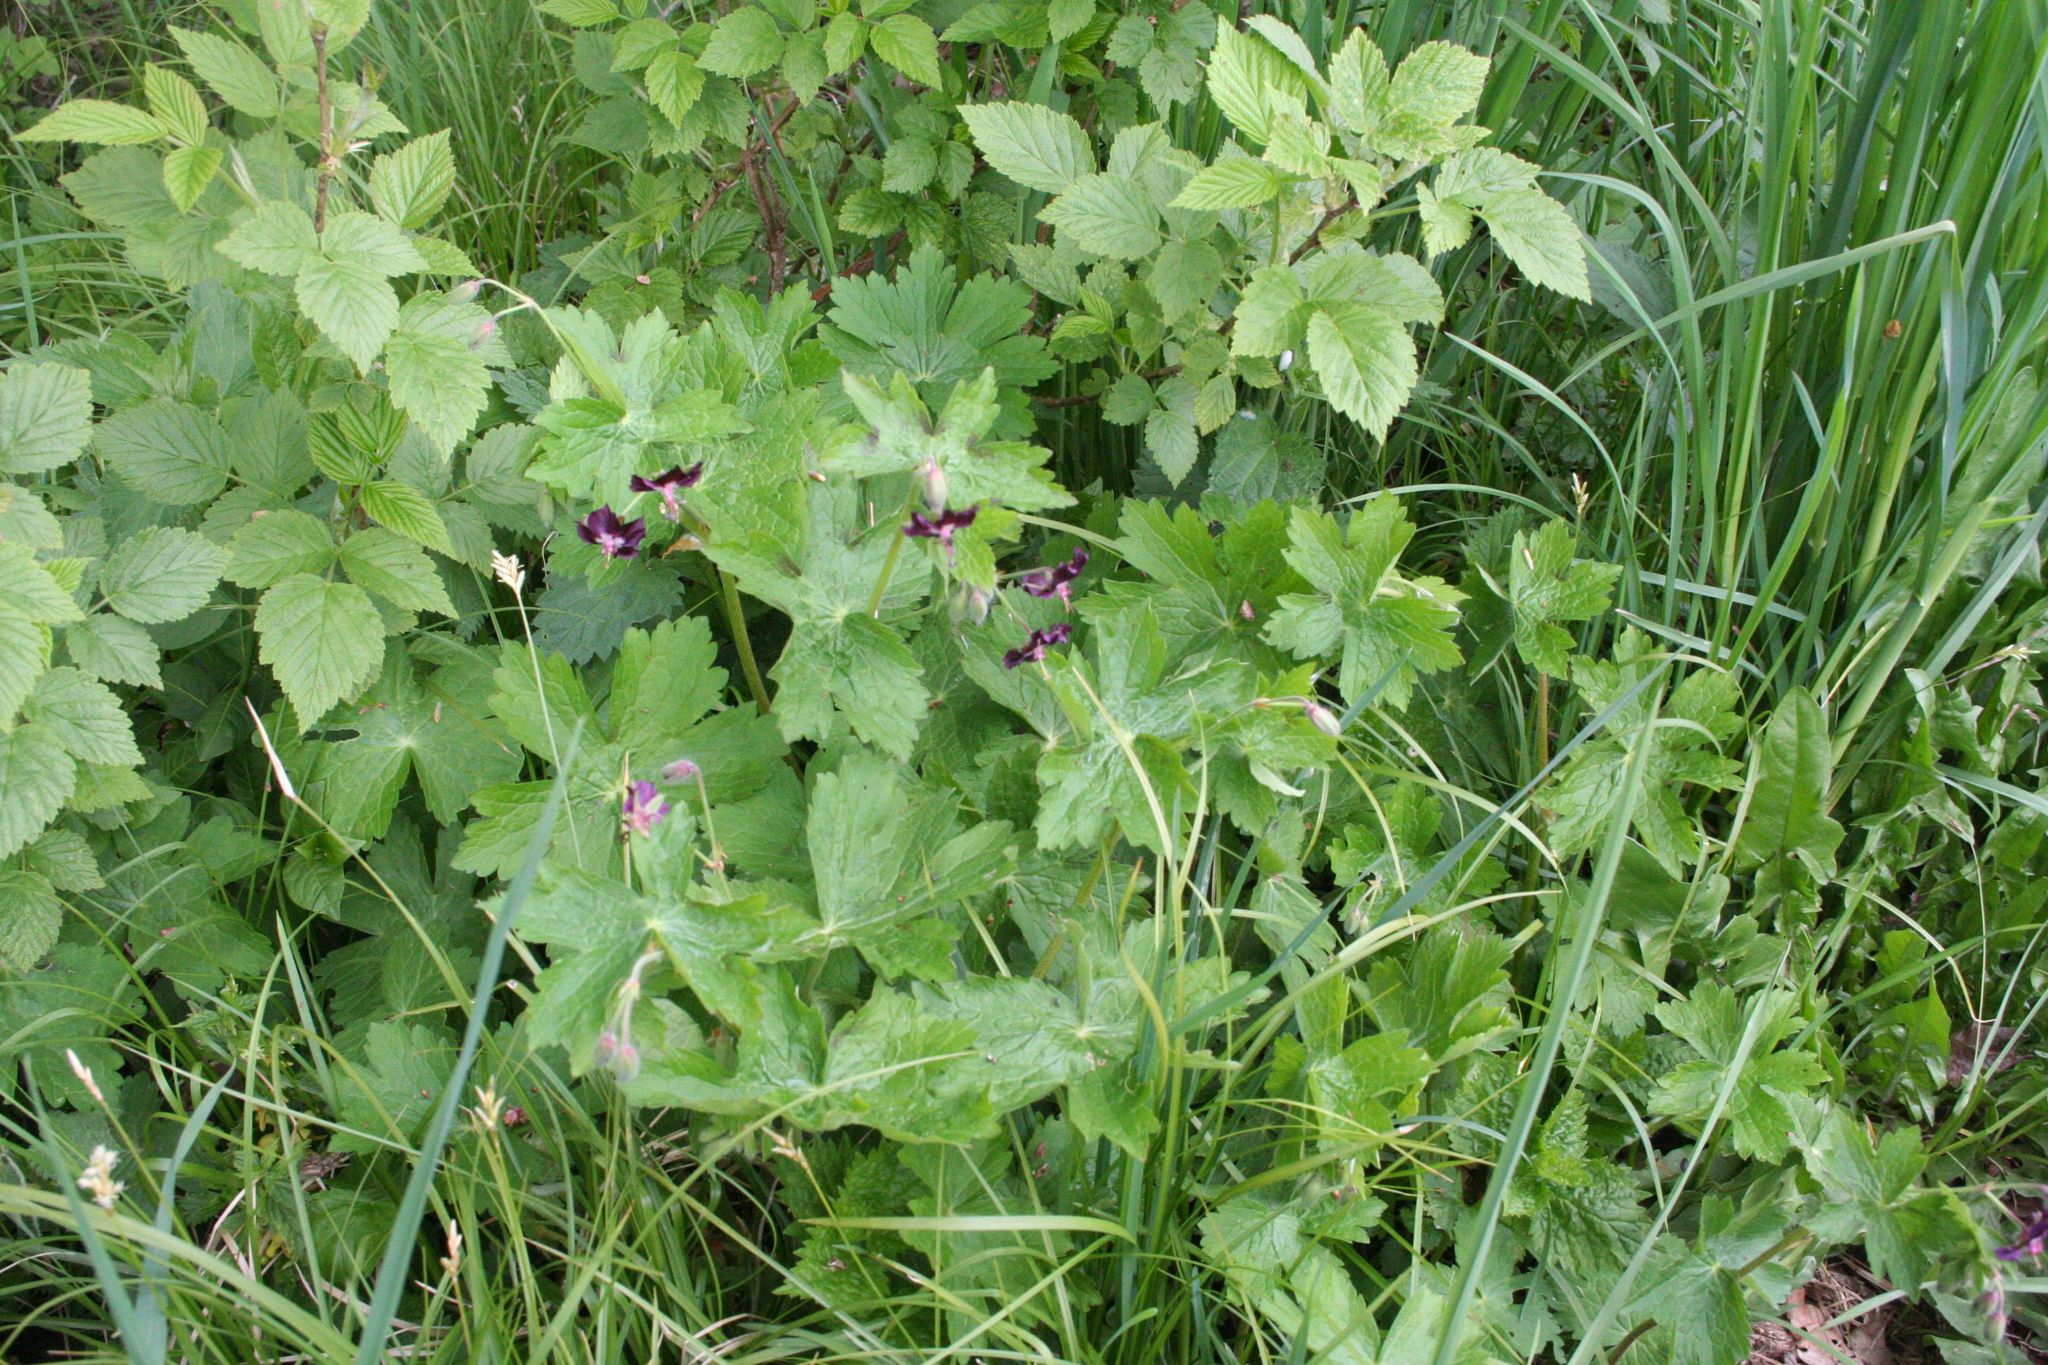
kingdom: Plantae
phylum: Tracheophyta
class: Magnoliopsida
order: Geraniales
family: Geraniaceae
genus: Geranium
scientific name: Geranium phaeum
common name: Dusky crane's-bill
